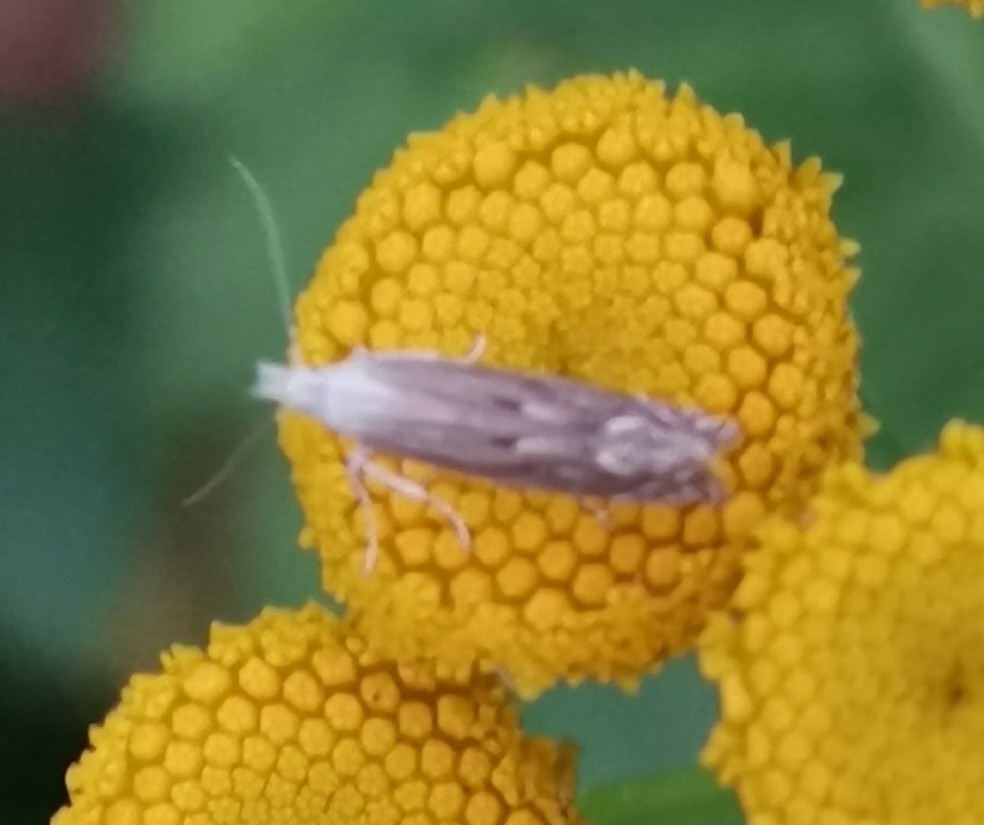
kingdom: Animalia
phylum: Arthropoda
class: Insecta
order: Lepidoptera
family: Gelechiidae
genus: Isophrictis
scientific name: Isophrictis striatella
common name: White-border neb
